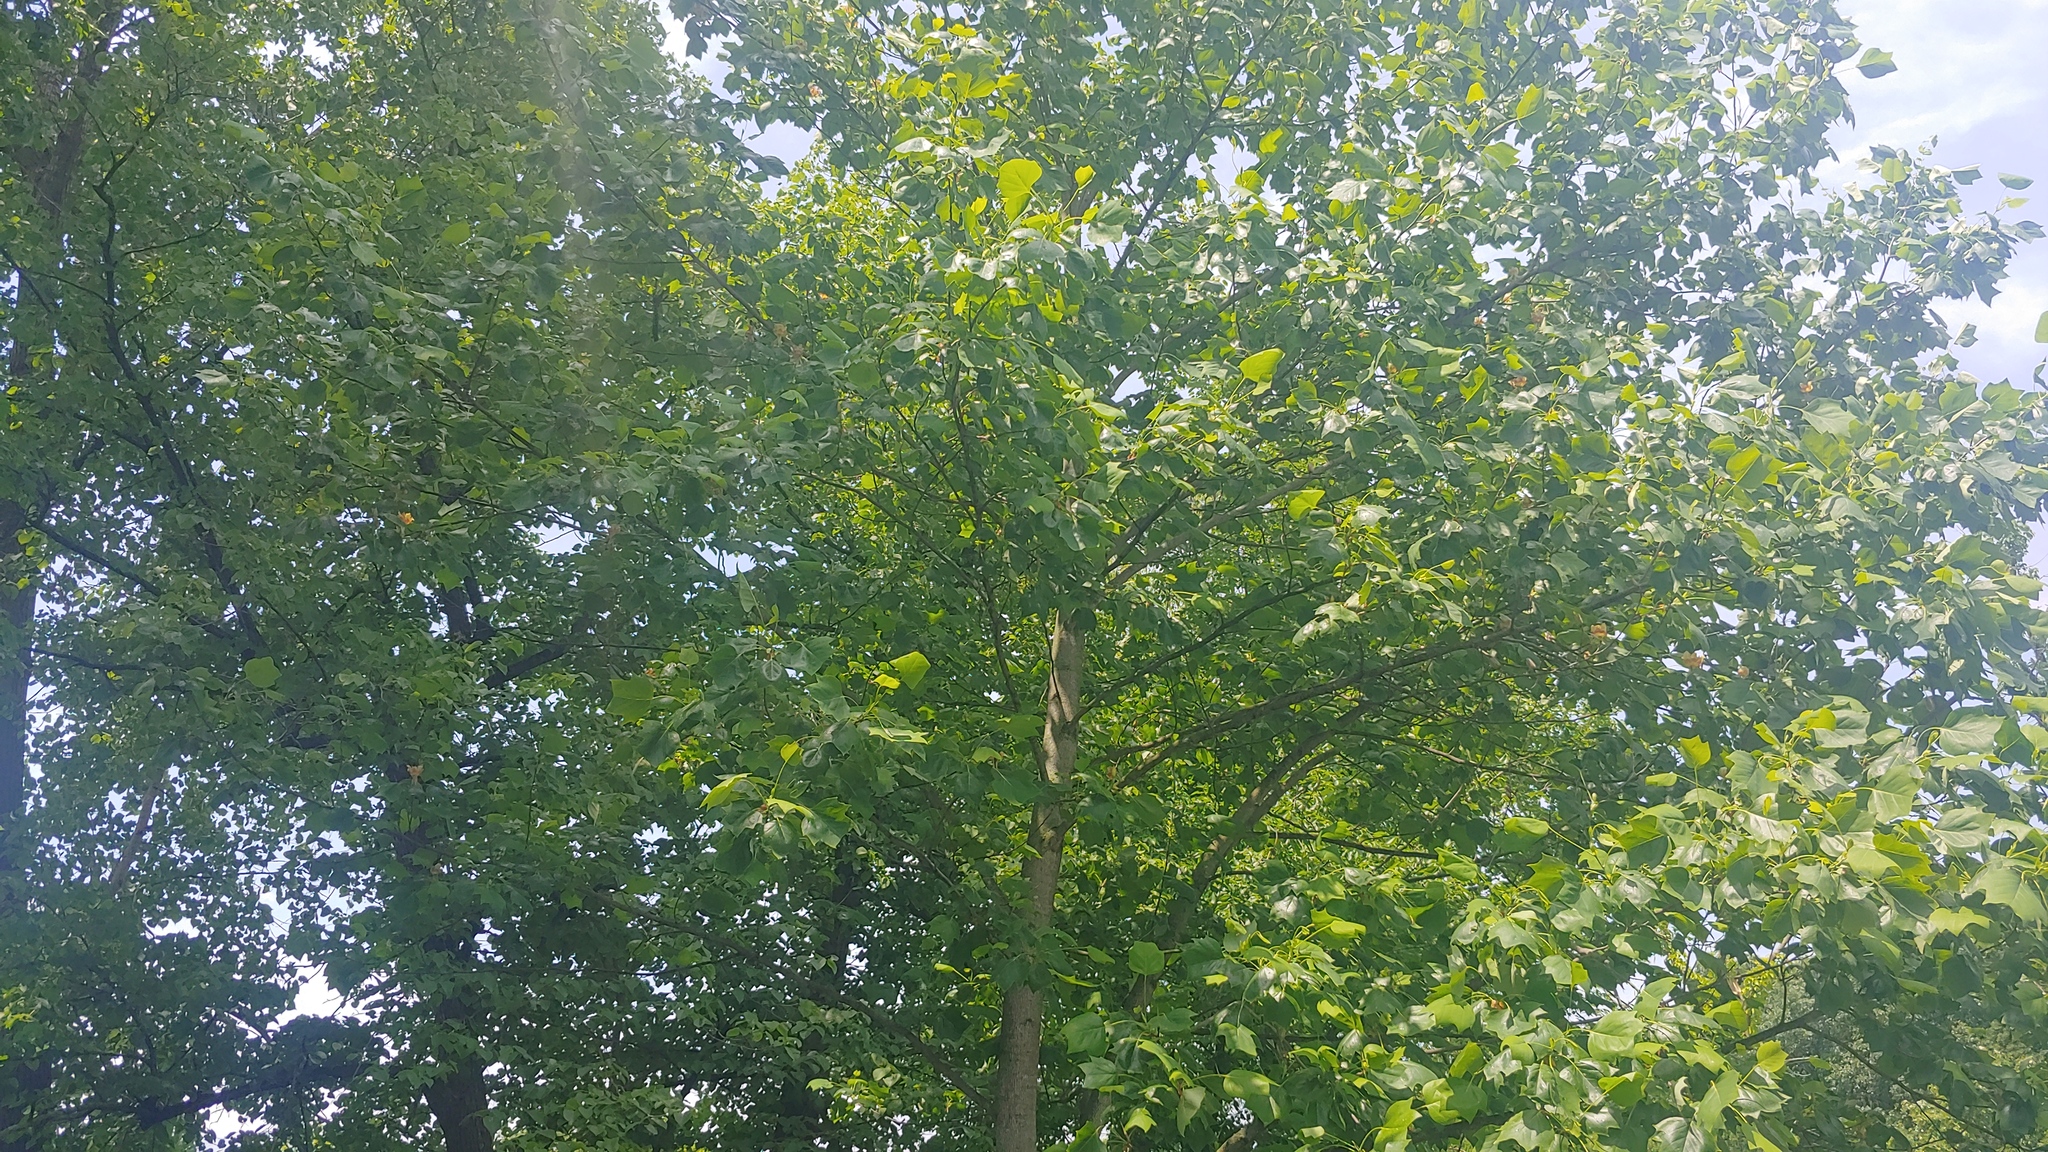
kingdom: Plantae
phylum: Tracheophyta
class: Magnoliopsida
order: Magnoliales
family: Magnoliaceae
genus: Liriodendron
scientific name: Liriodendron tulipifera
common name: Tulip tree
